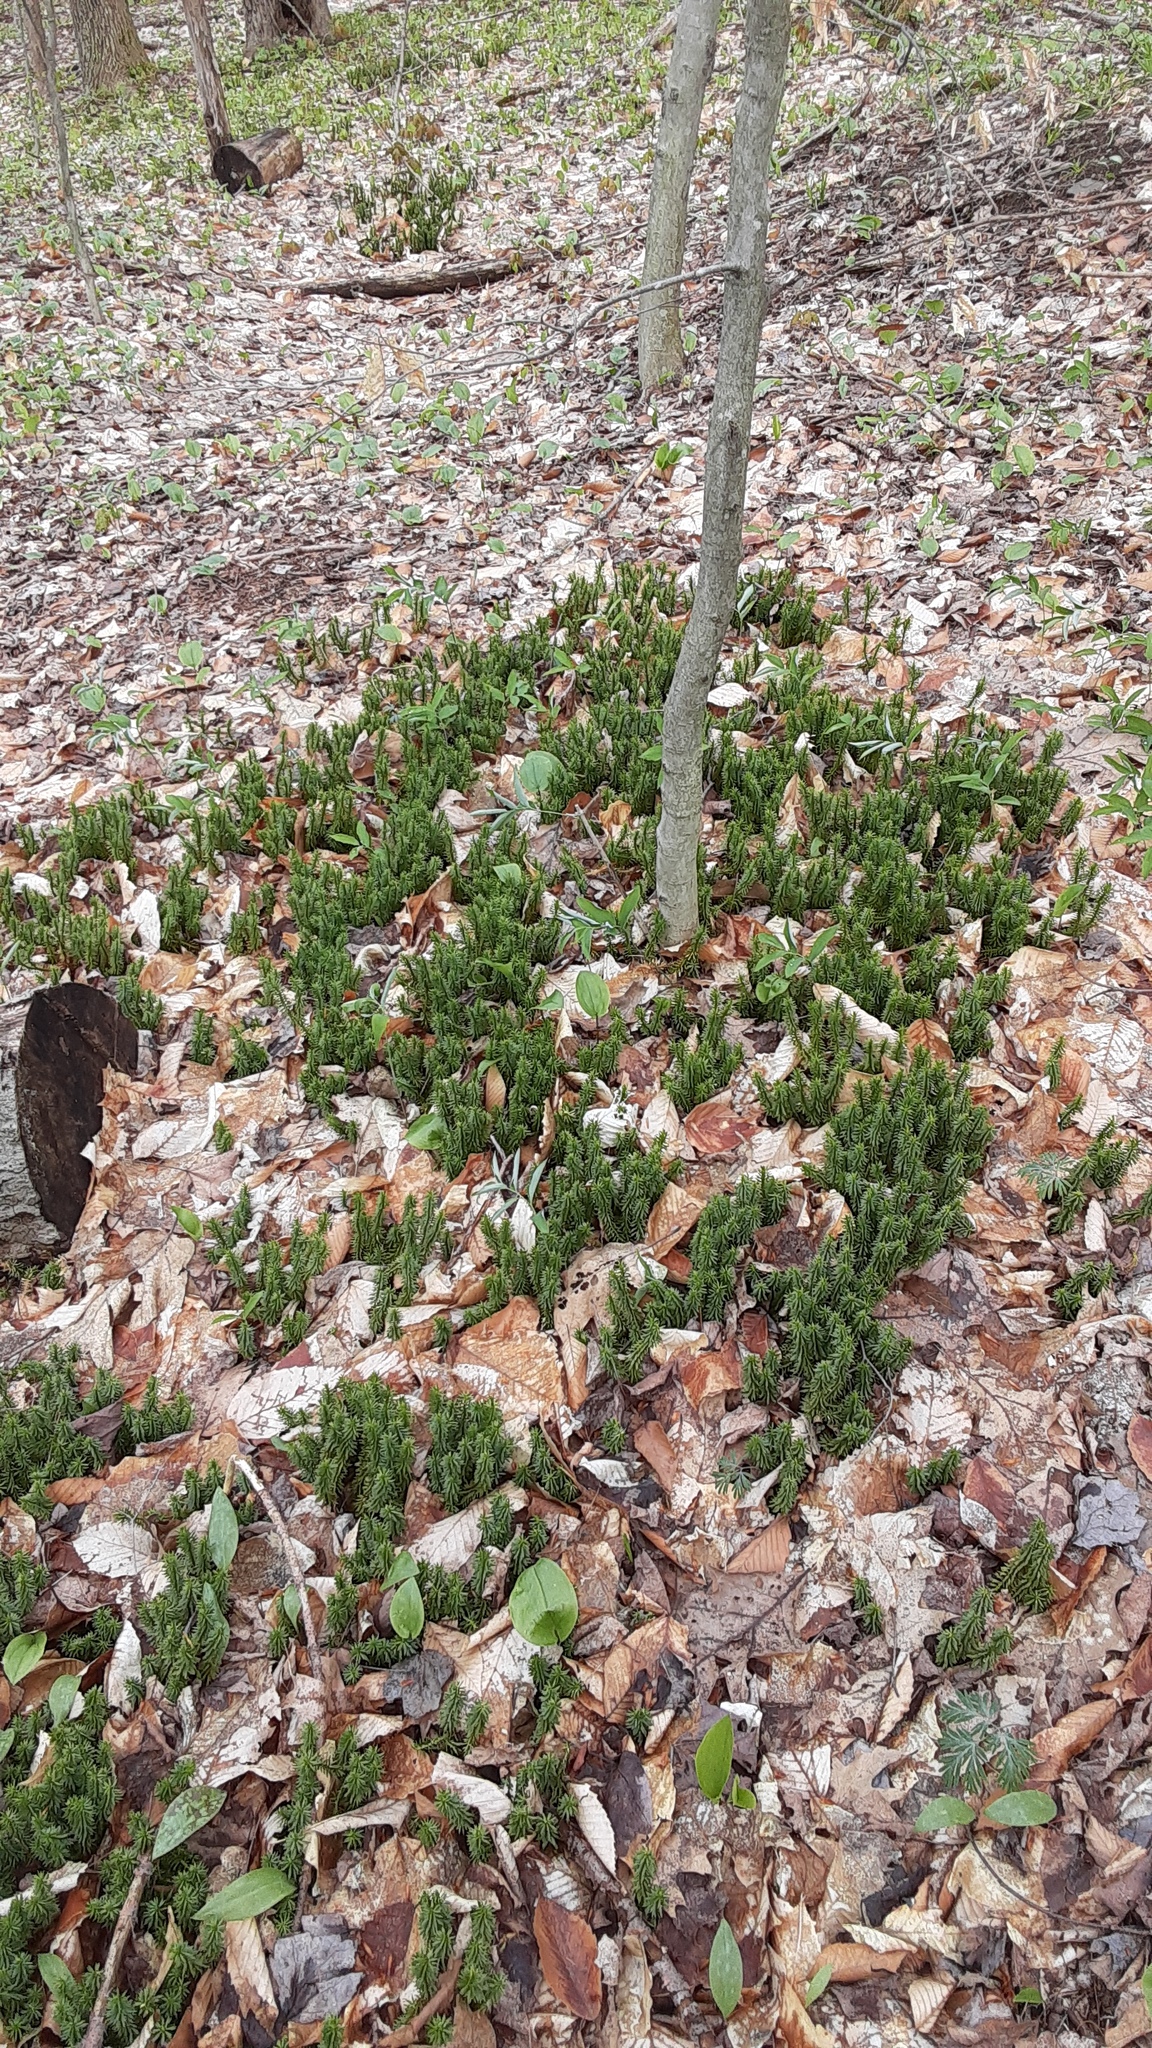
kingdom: Plantae
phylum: Tracheophyta
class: Lycopodiopsida
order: Lycopodiales
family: Lycopodiaceae
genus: Huperzia
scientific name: Huperzia lucidula
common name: Shining clubmoss
